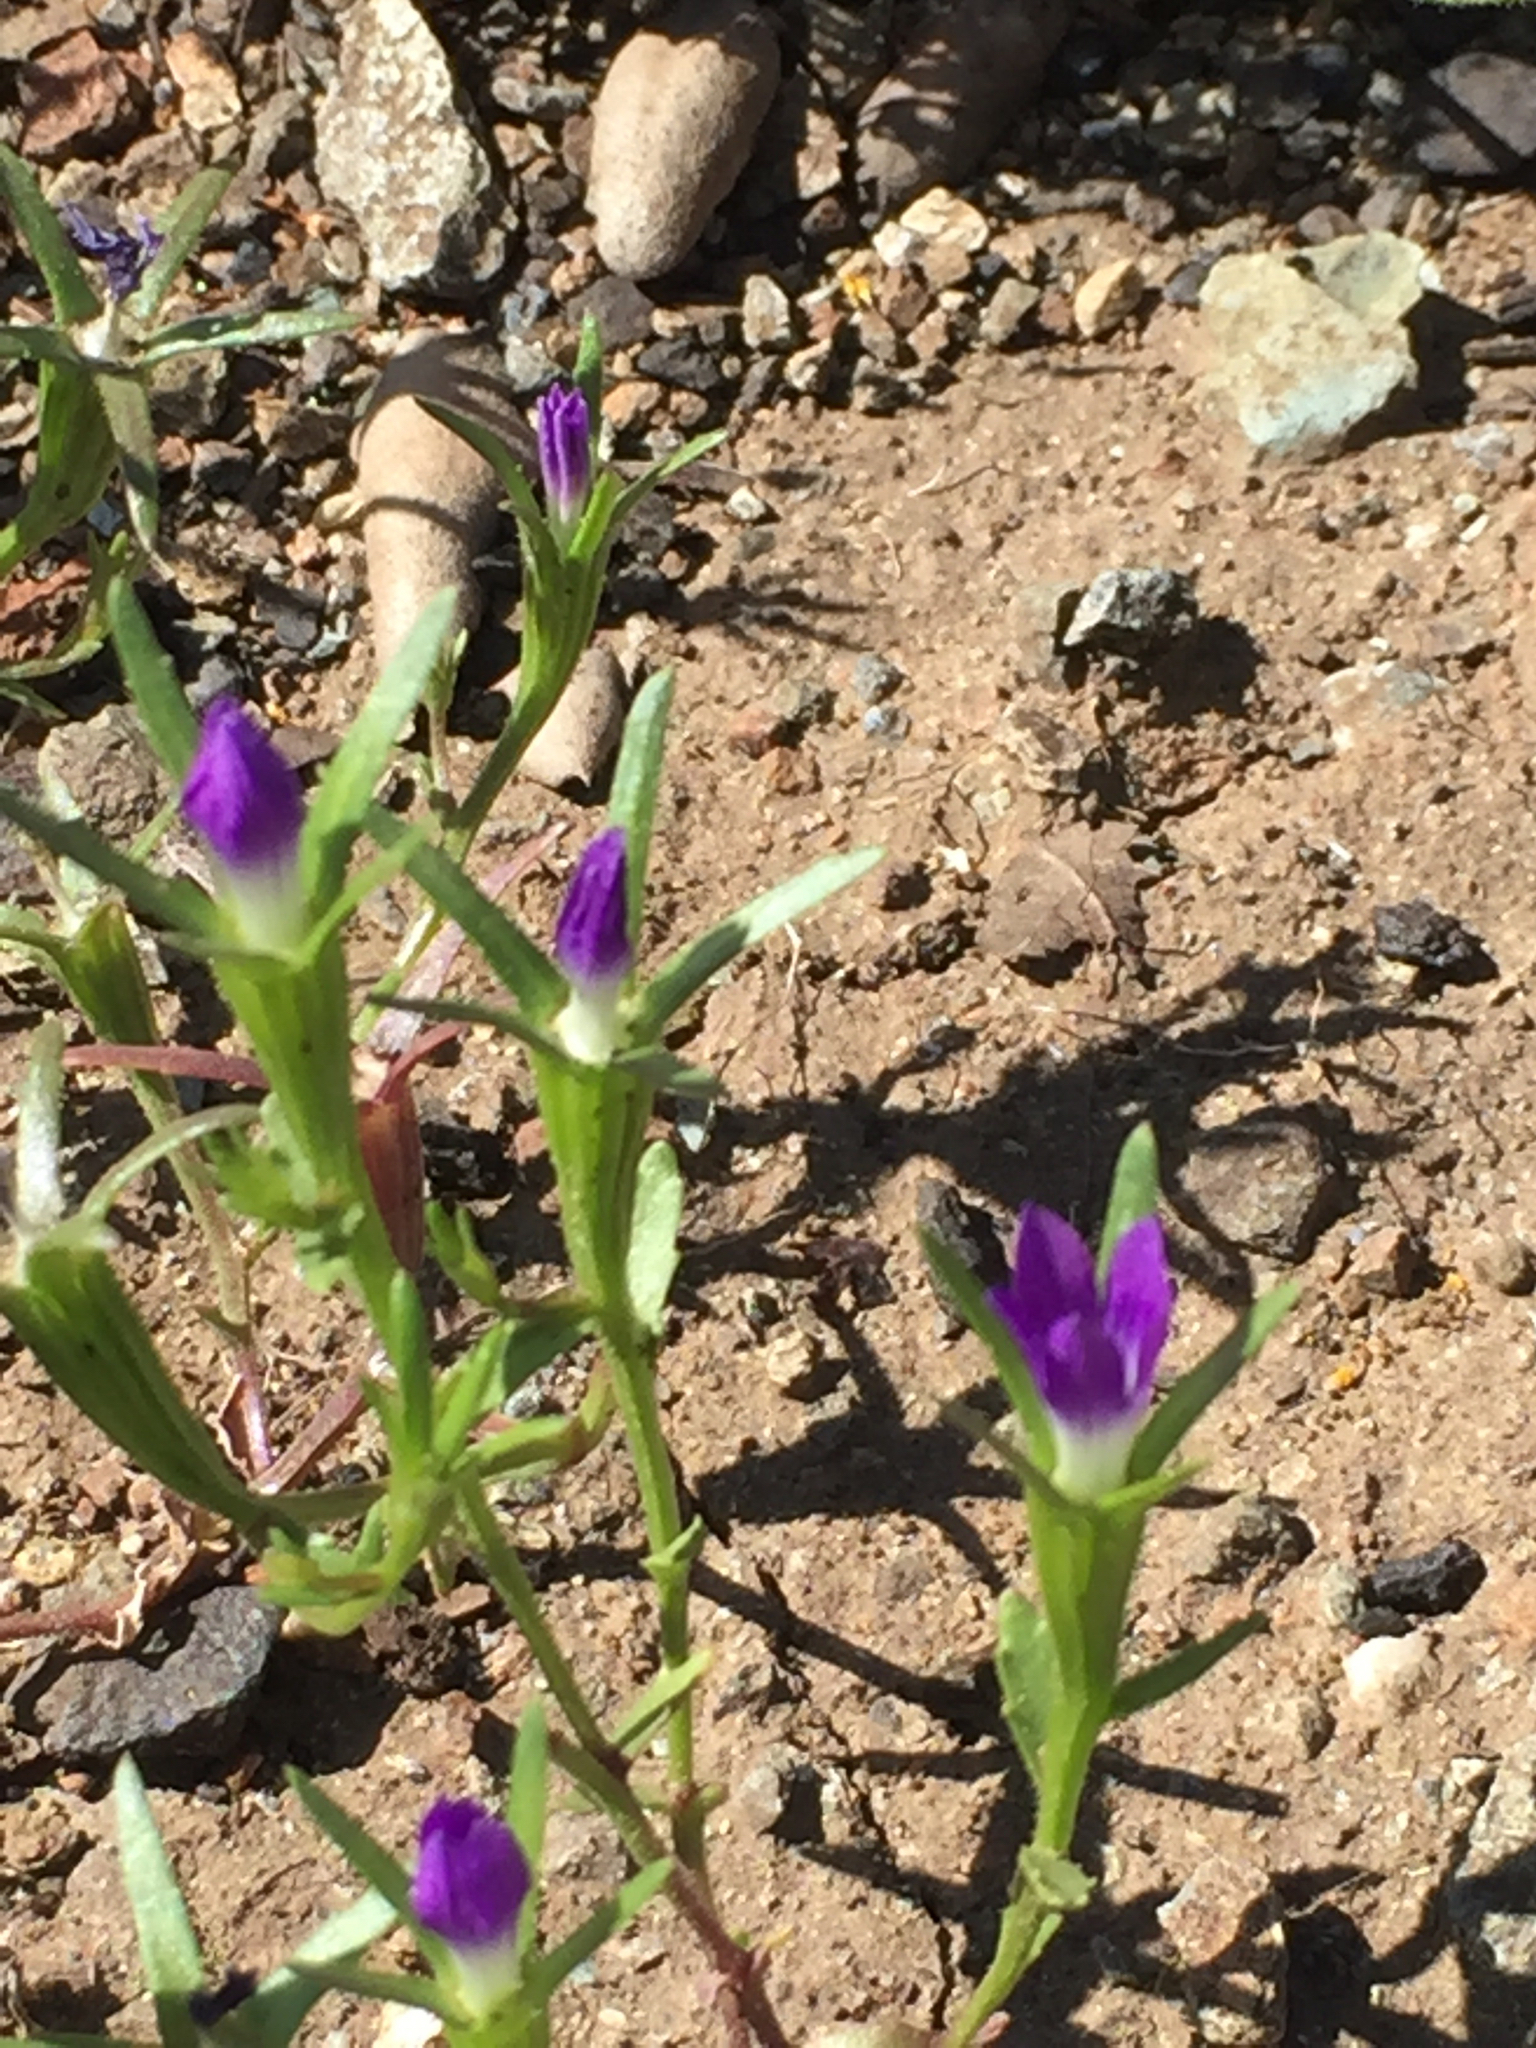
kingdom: Plantae
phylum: Tracheophyta
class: Magnoliopsida
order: Asterales
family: Campanulaceae
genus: Githopsis
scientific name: Githopsis specularioides
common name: Common bluecup
